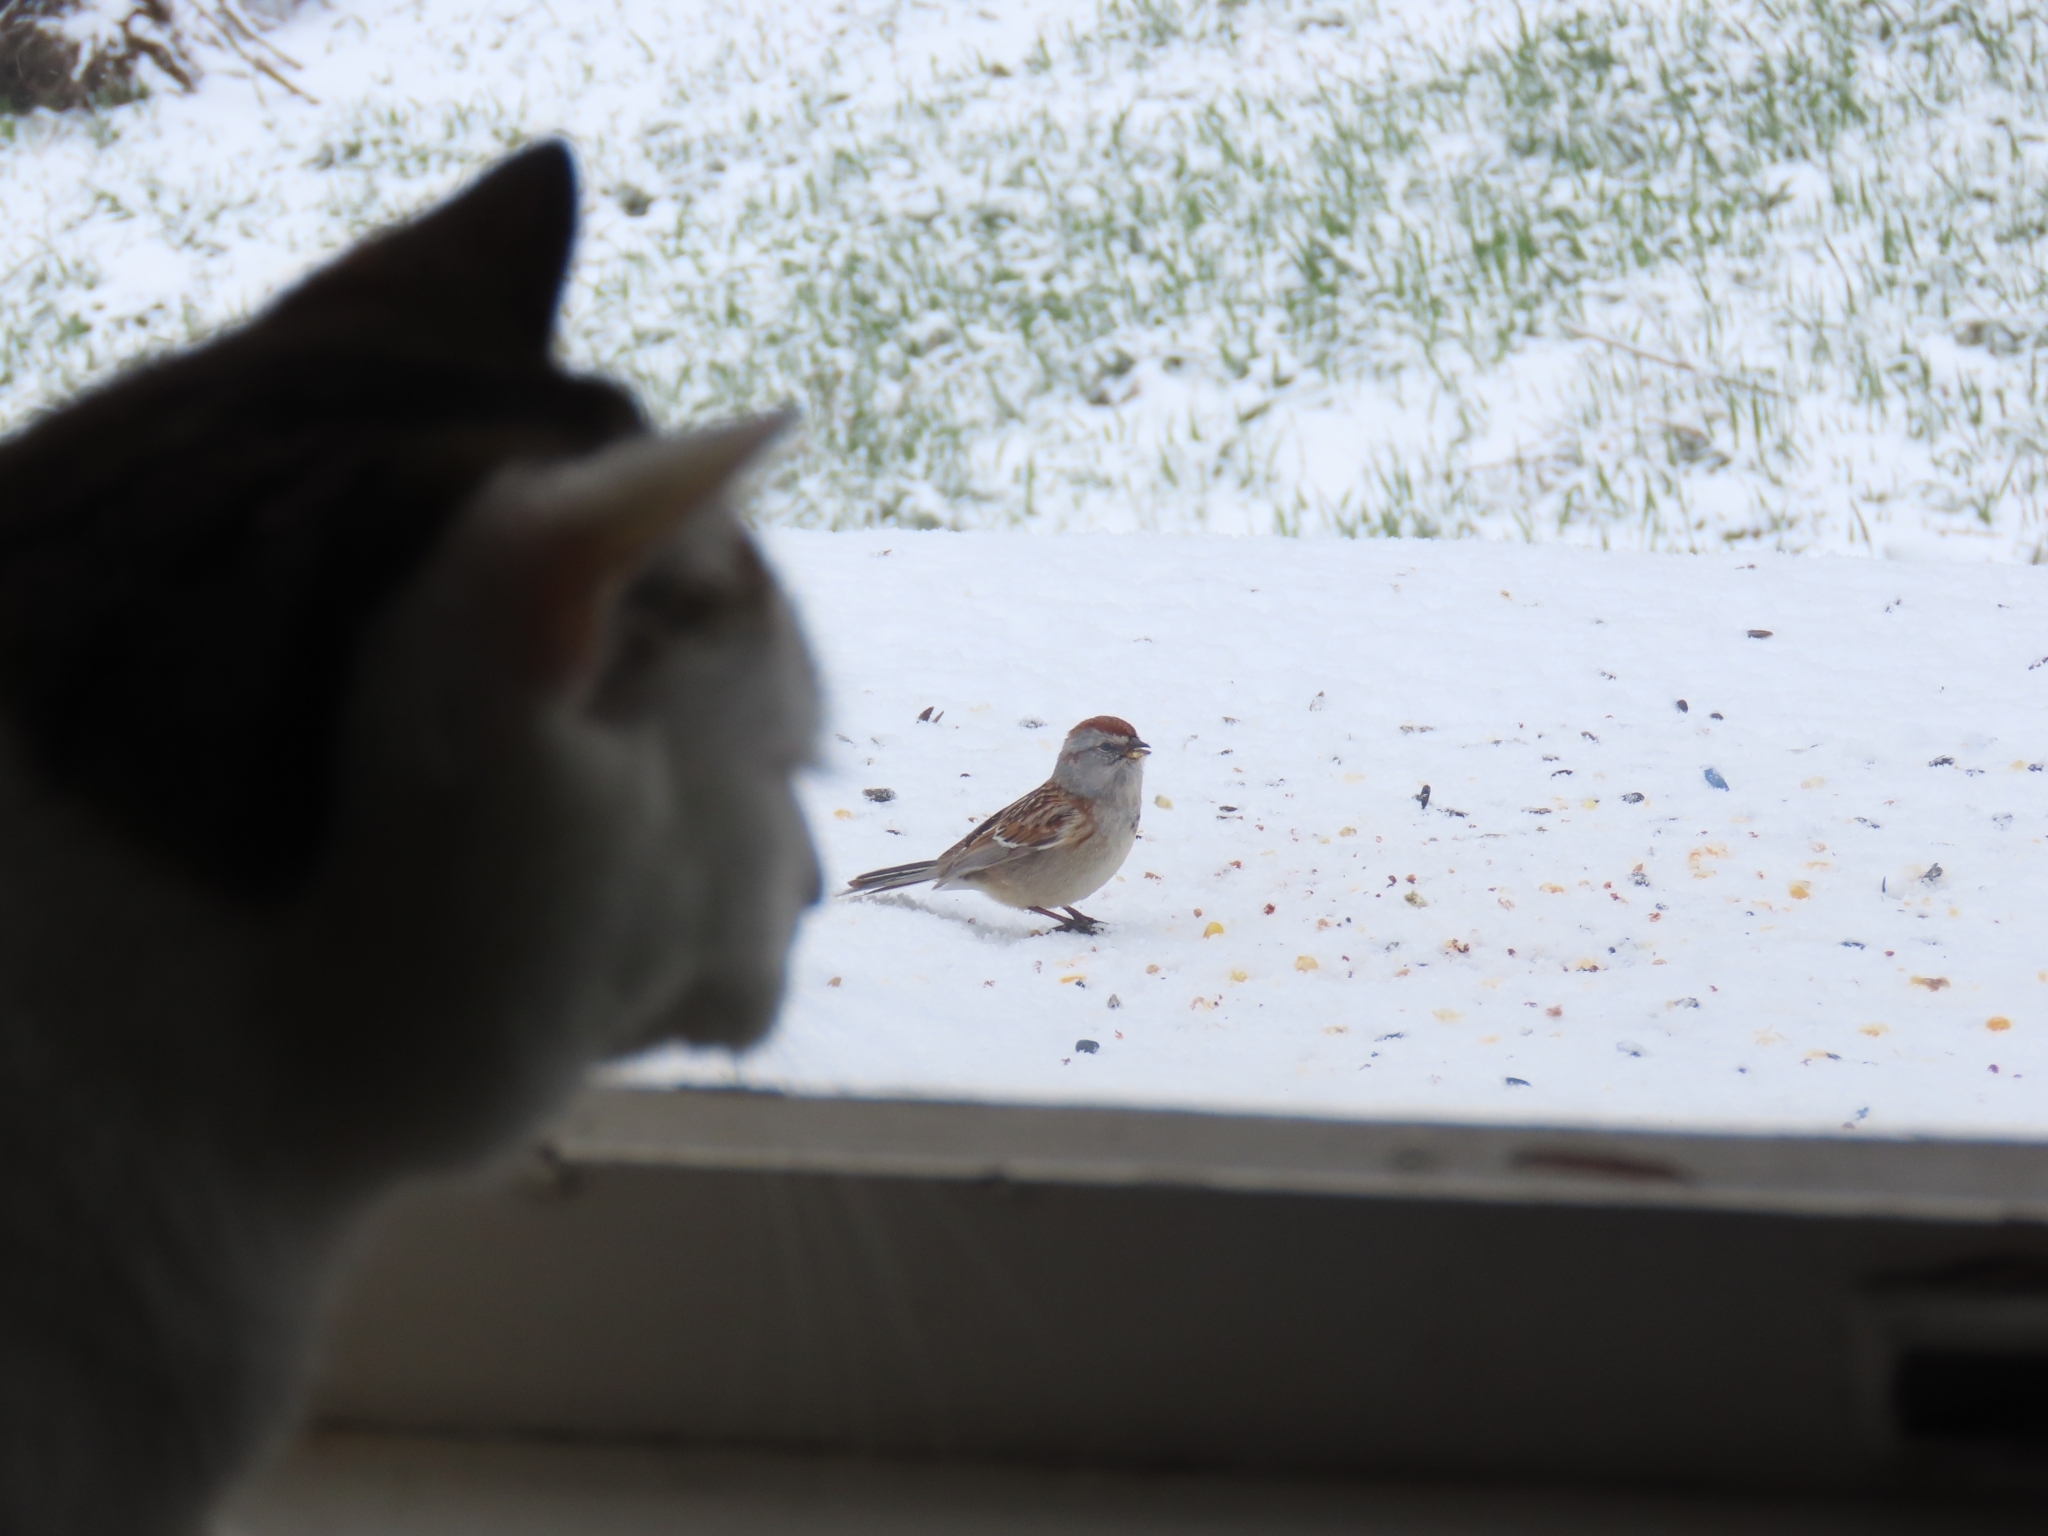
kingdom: Animalia
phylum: Chordata
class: Aves
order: Passeriformes
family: Passerellidae
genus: Spizelloides
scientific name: Spizelloides arborea
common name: American tree sparrow
